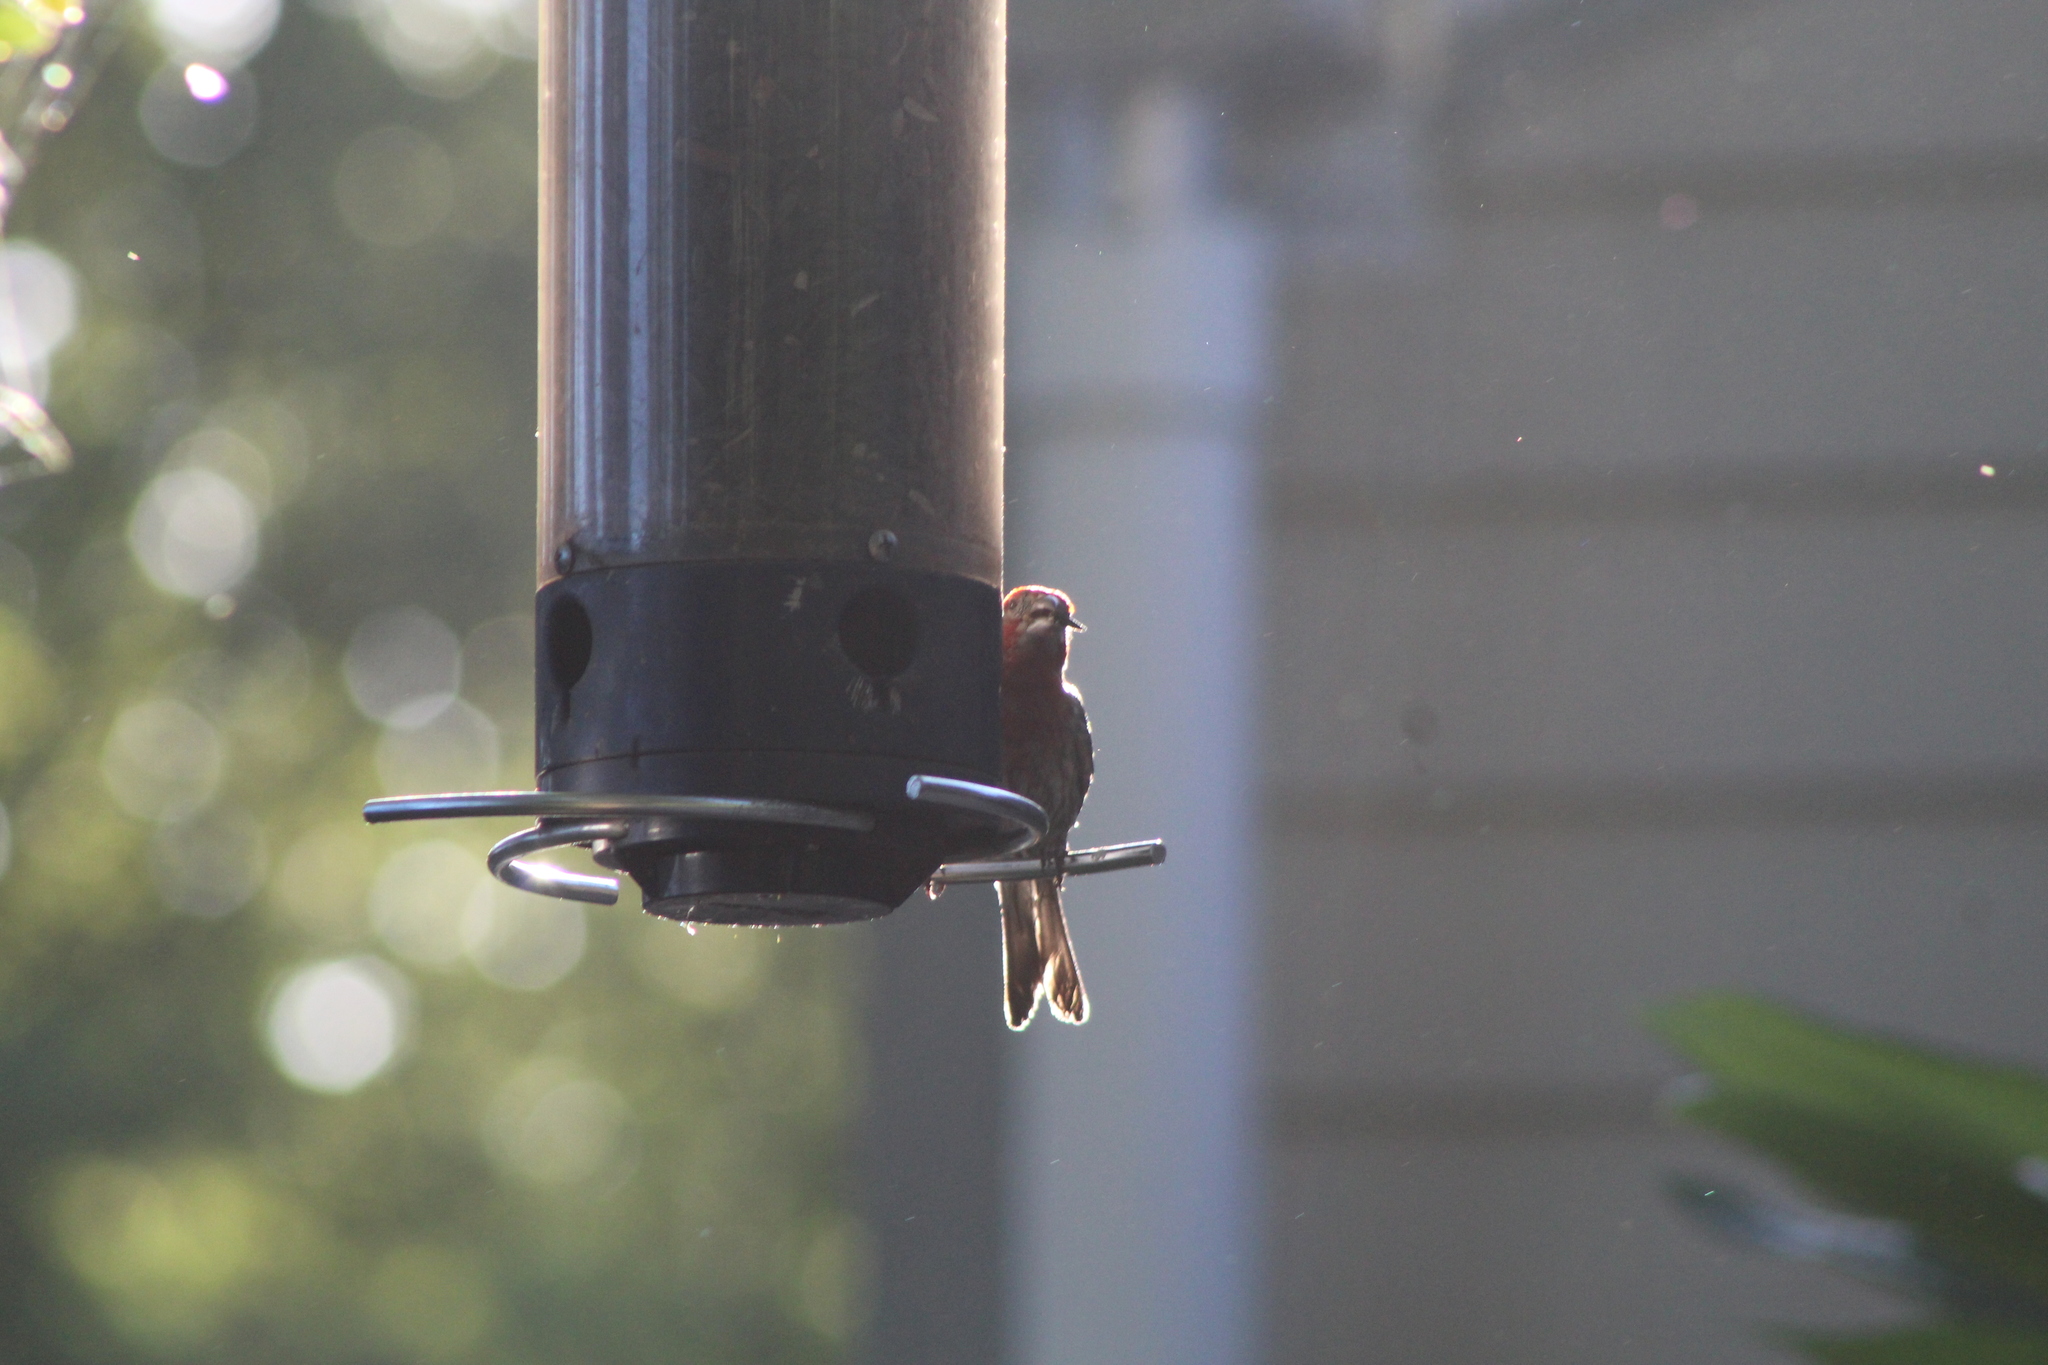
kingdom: Animalia
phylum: Chordata
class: Aves
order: Passeriformes
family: Fringillidae
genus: Haemorhous
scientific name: Haemorhous mexicanus
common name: House finch
